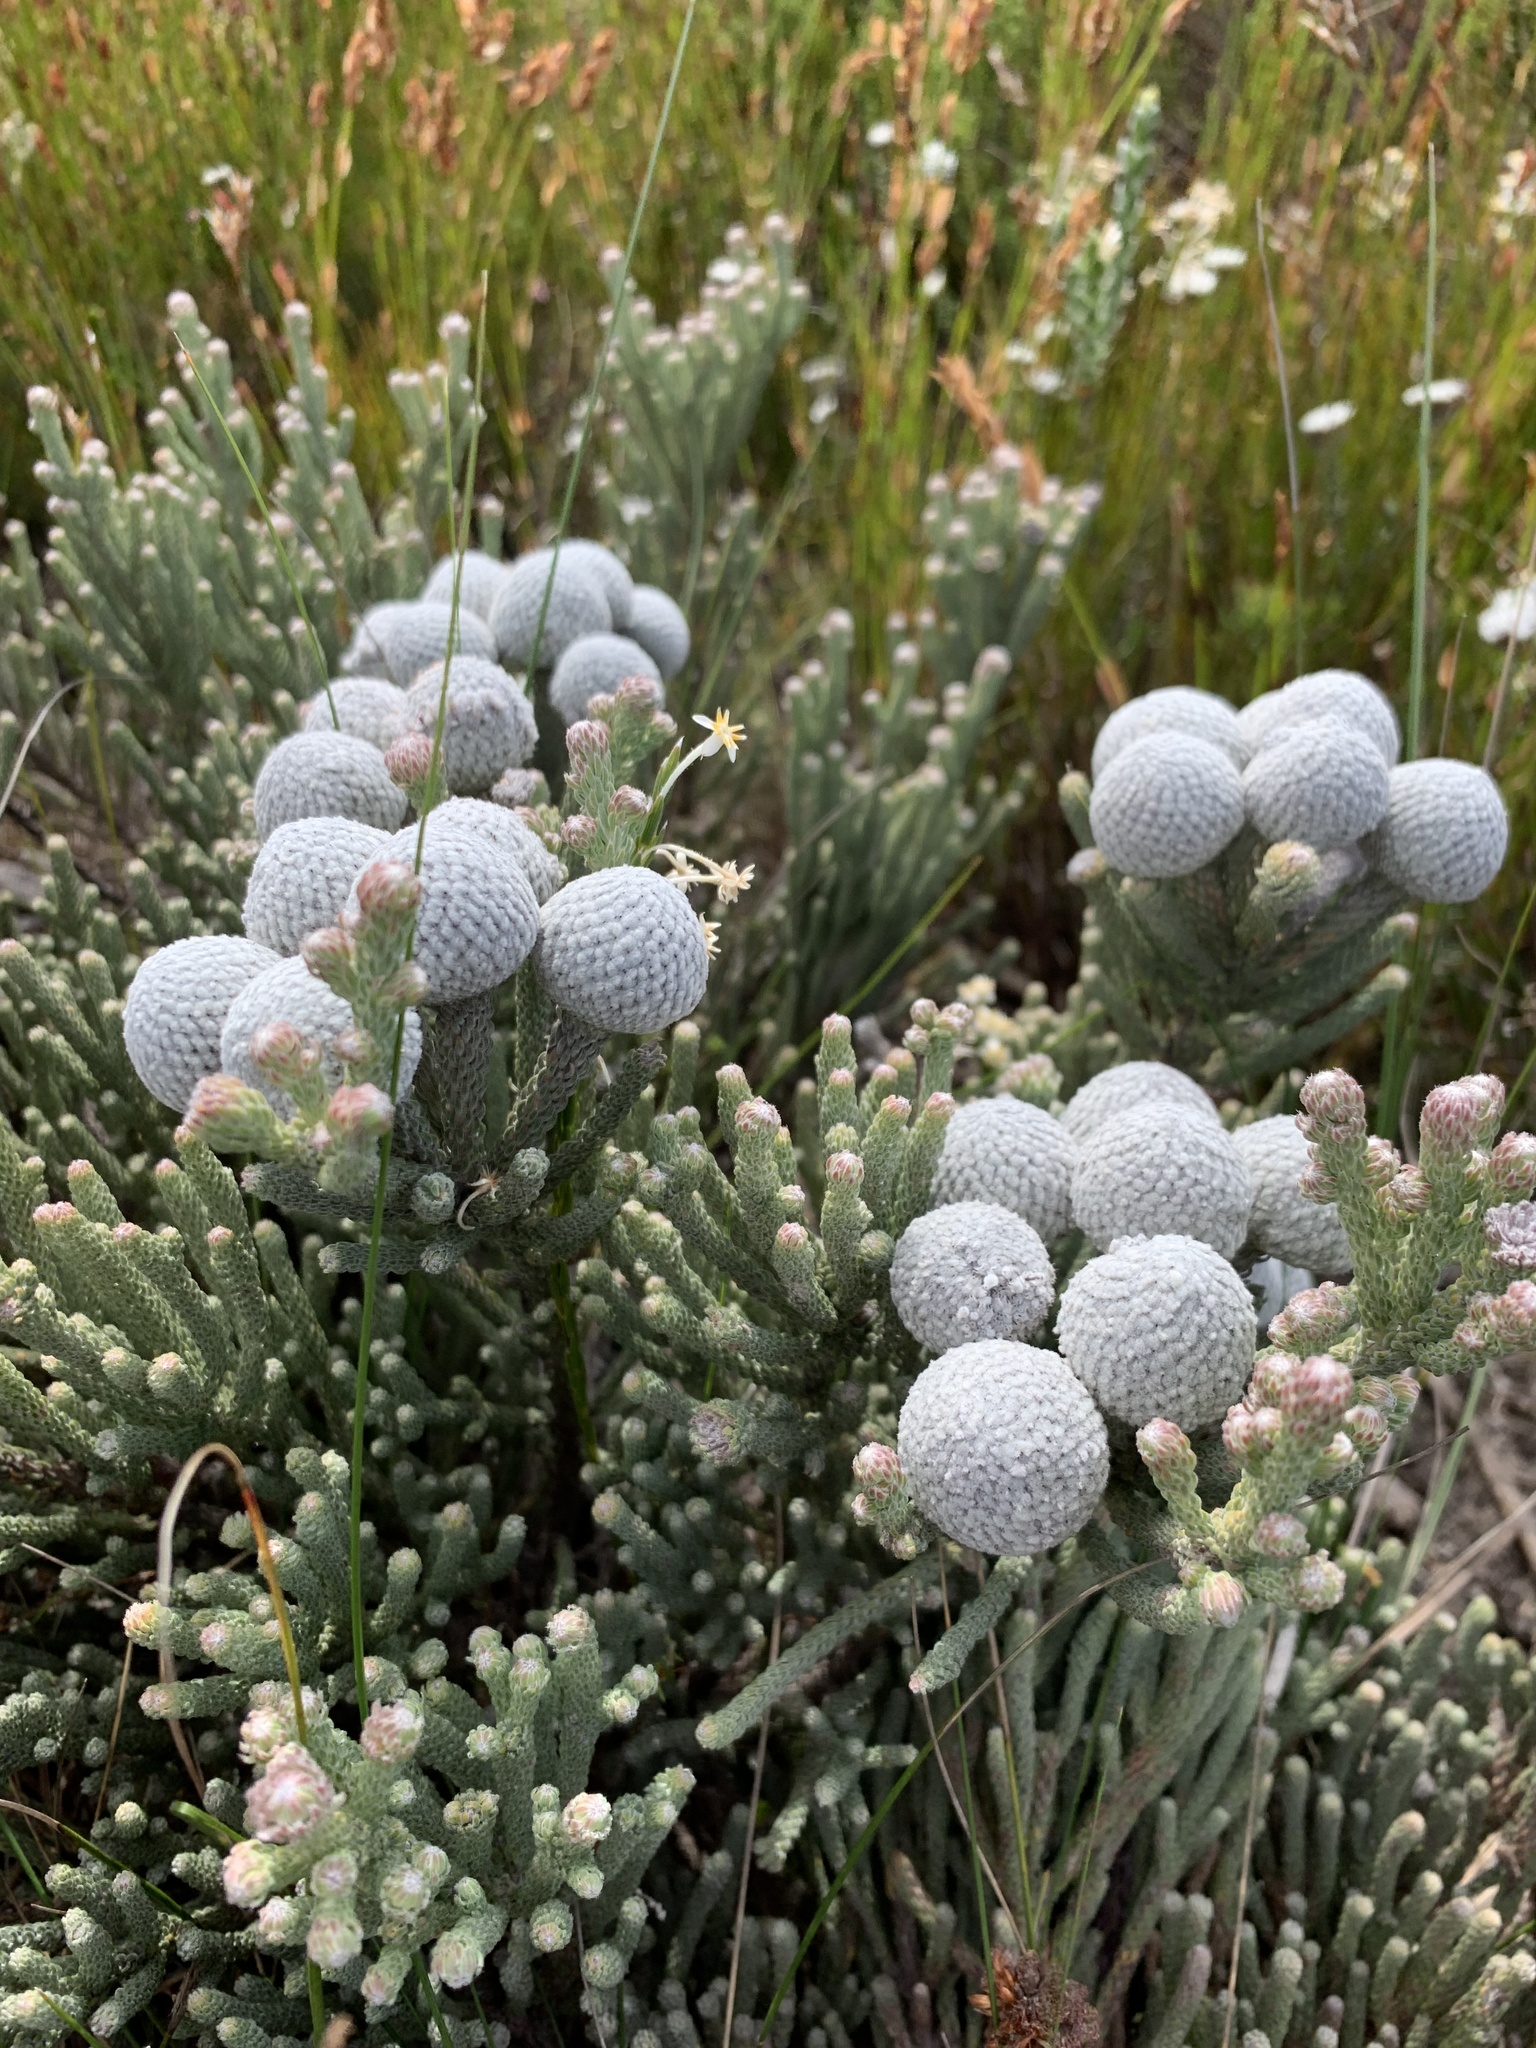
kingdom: Plantae
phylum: Tracheophyta
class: Magnoliopsida
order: Bruniales
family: Bruniaceae
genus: Brunia
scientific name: Brunia laevis
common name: Silver brunia
